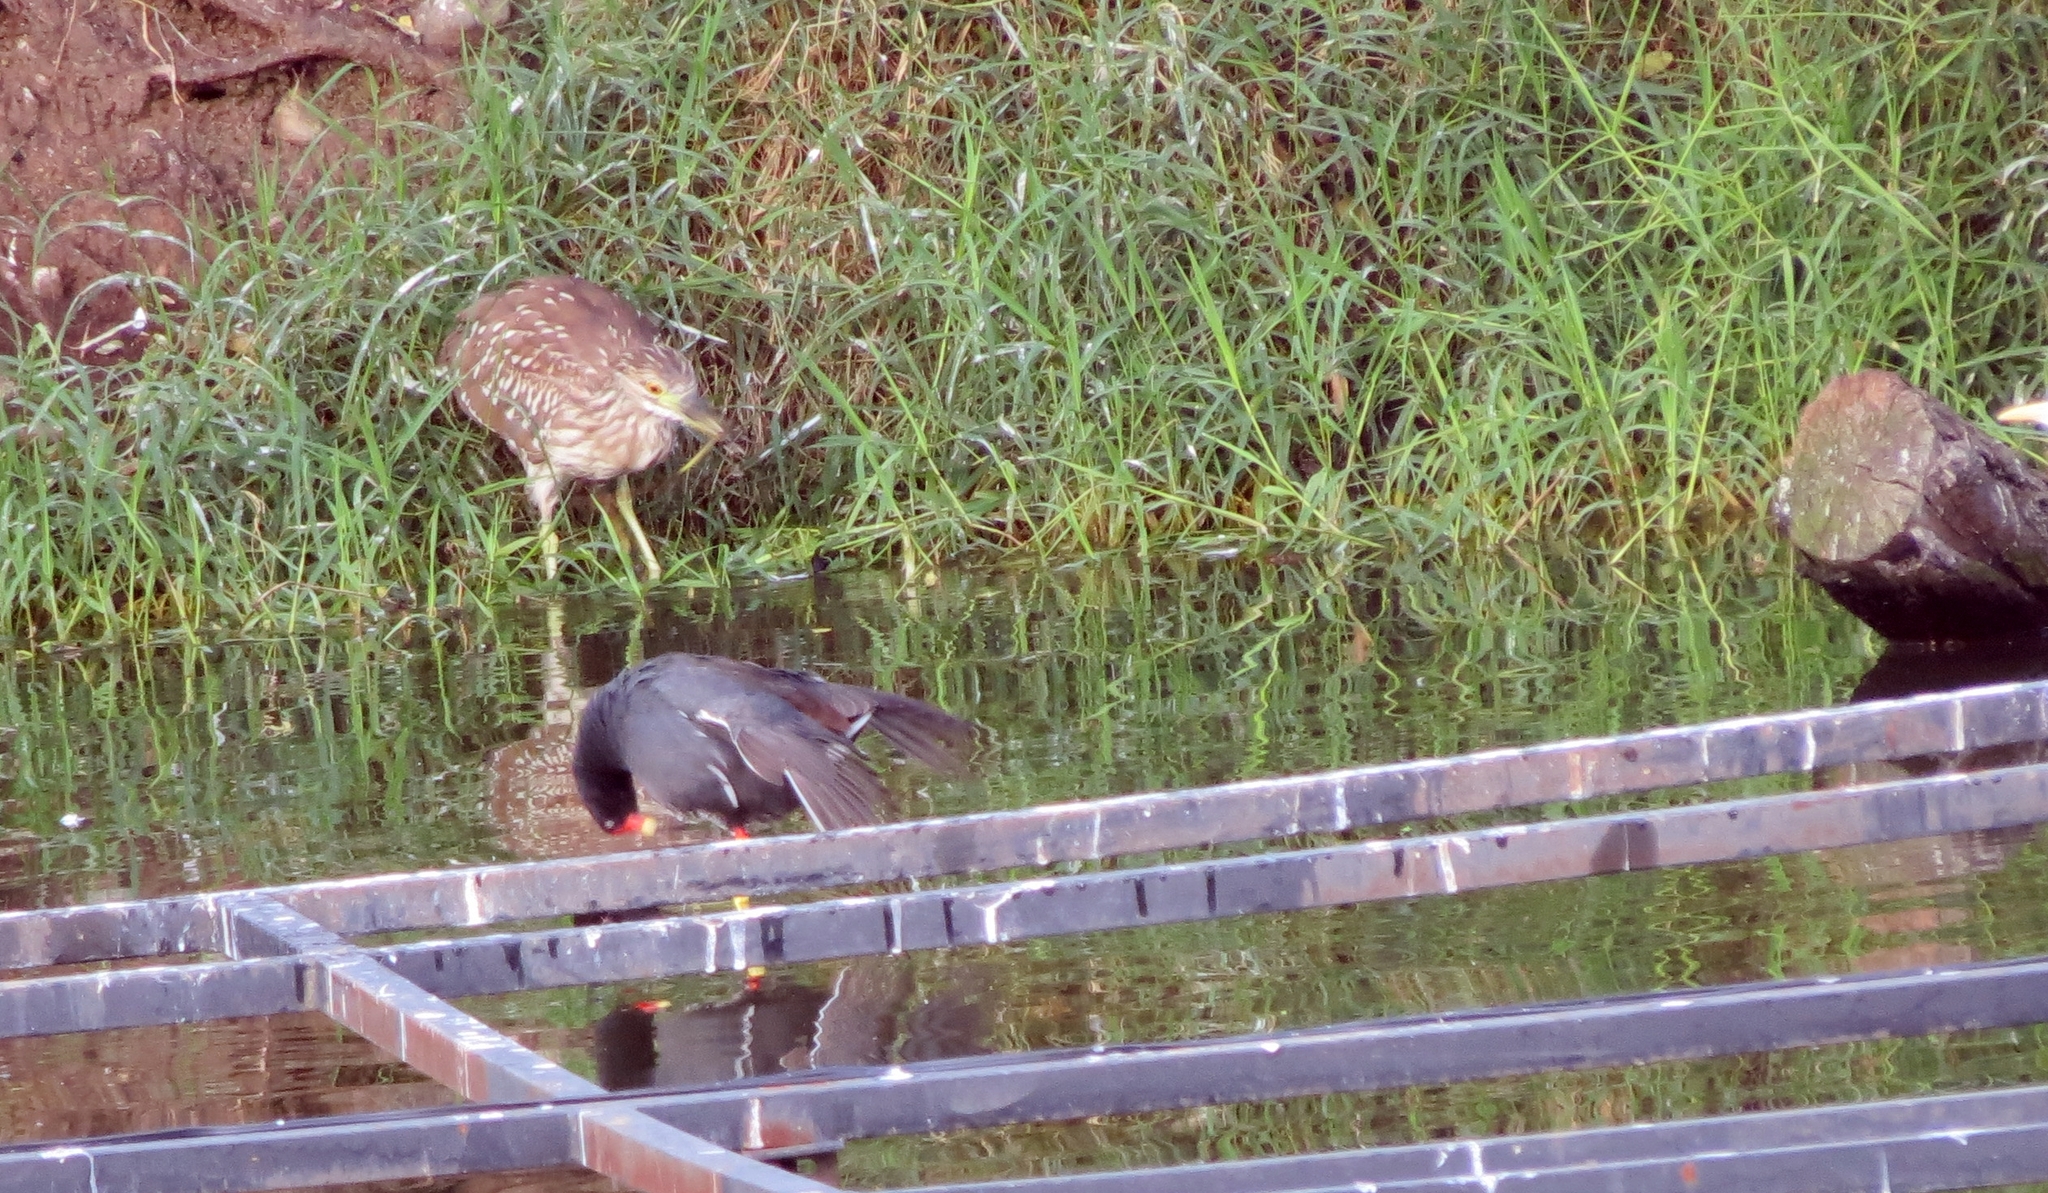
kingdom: Animalia
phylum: Chordata
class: Aves
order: Pelecaniformes
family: Ardeidae
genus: Nycticorax
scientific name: Nycticorax nycticorax
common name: Black-crowned night heron
